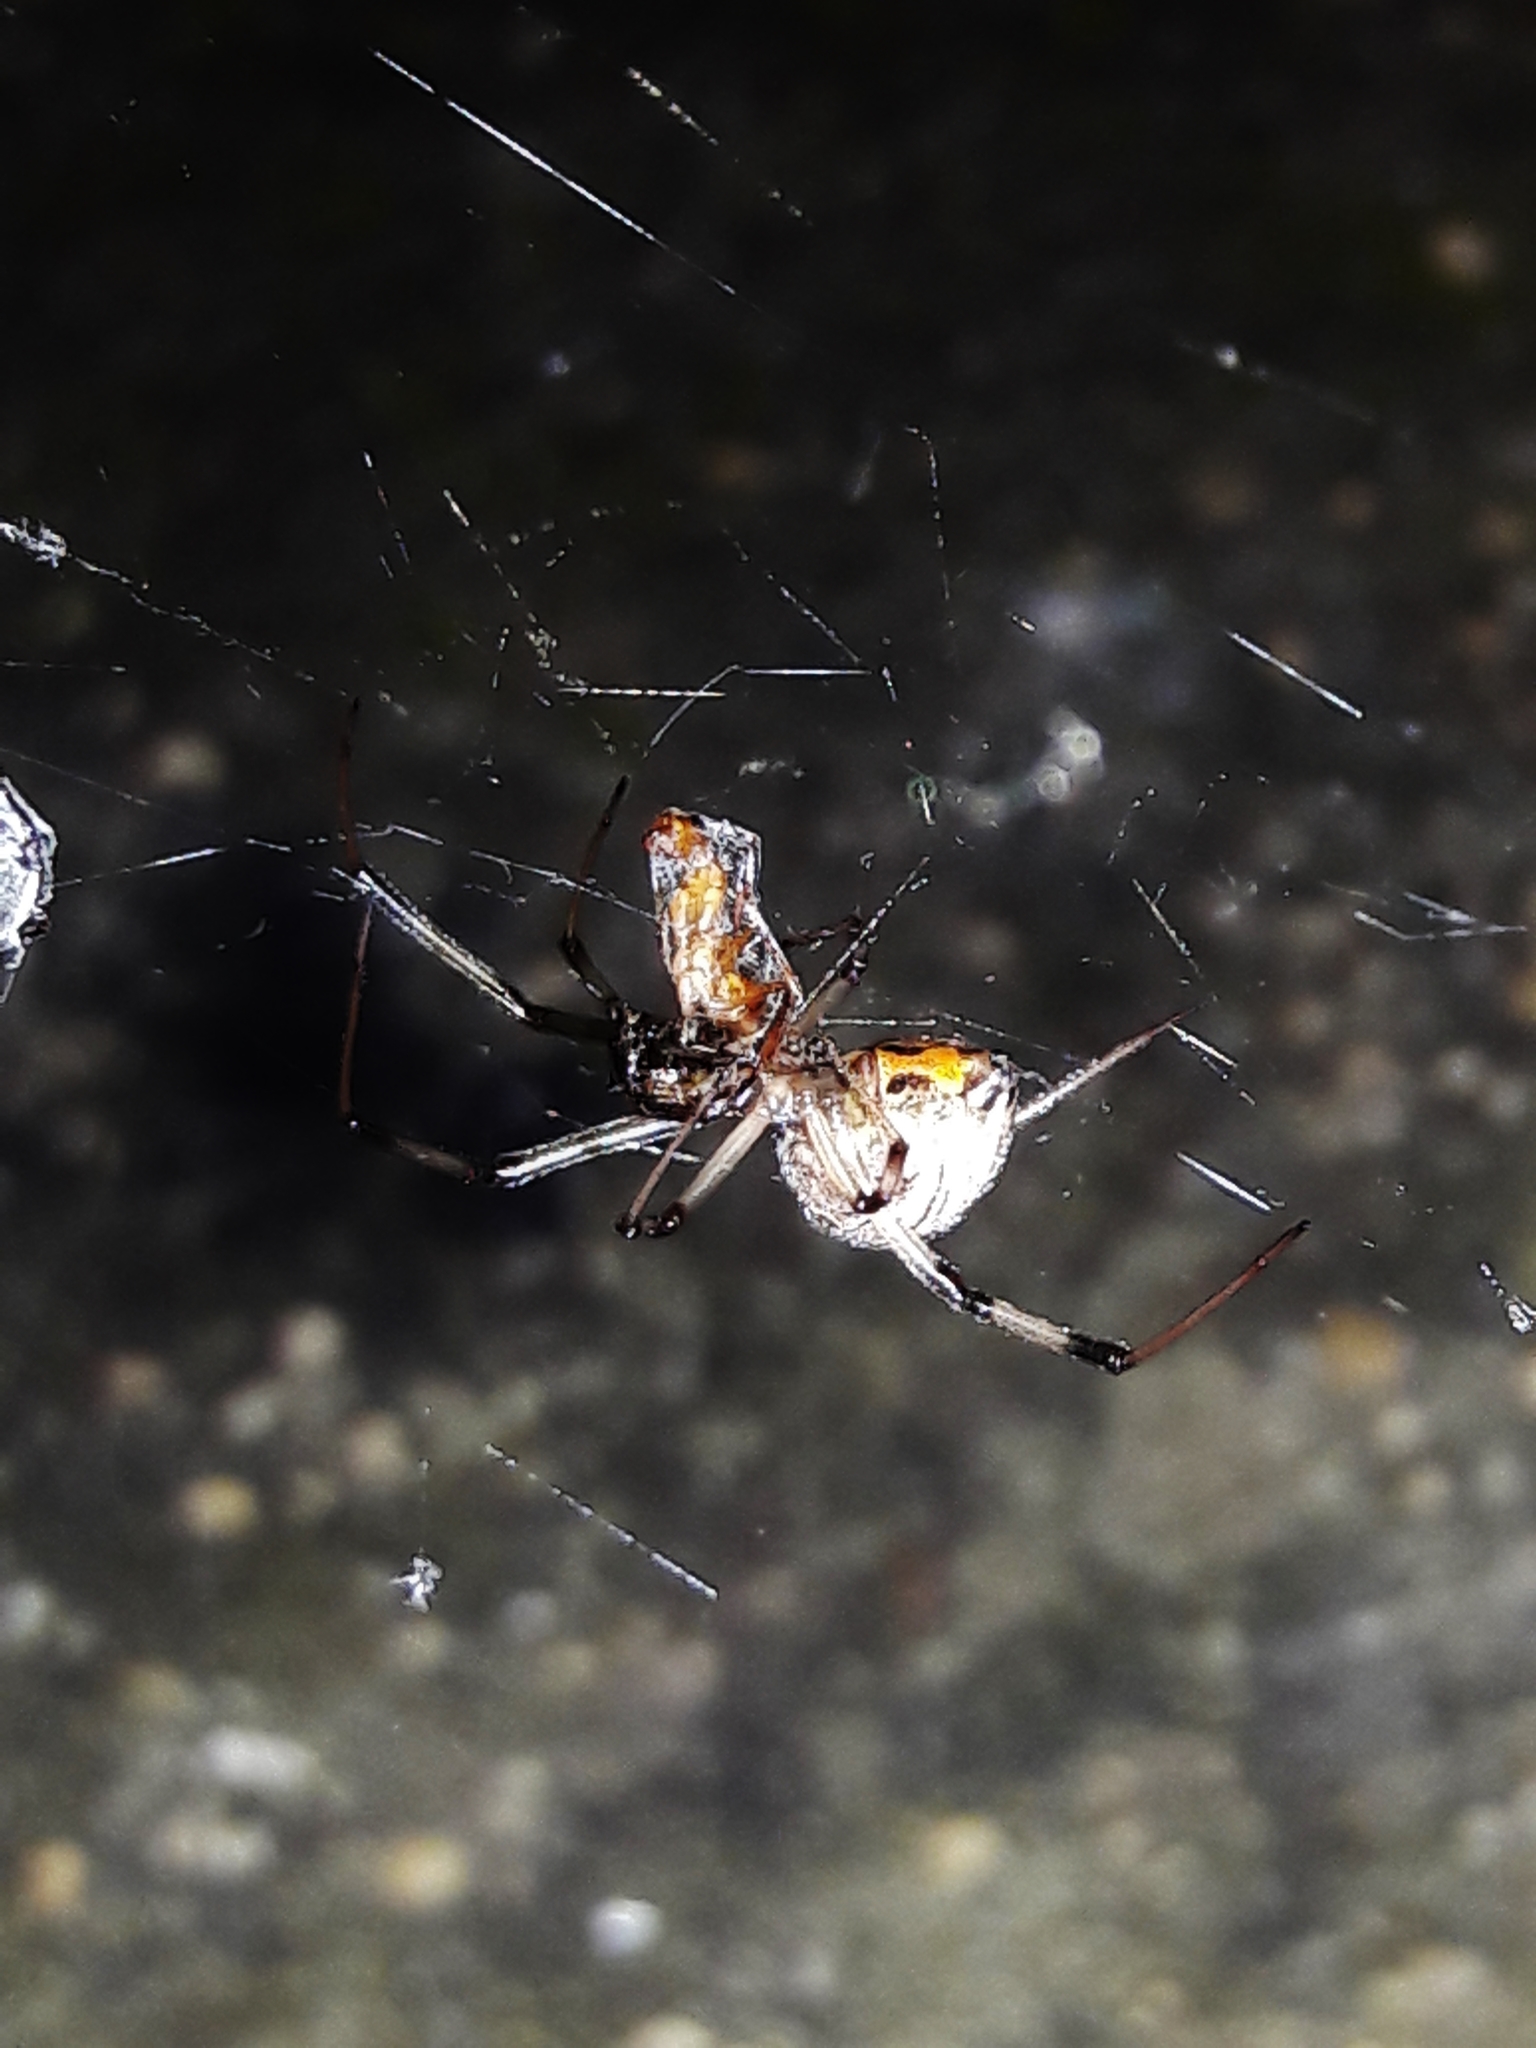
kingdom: Animalia
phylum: Arthropoda
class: Arachnida
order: Araneae
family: Theridiidae
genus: Latrodectus
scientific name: Latrodectus geometricus
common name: Brown widow spider
